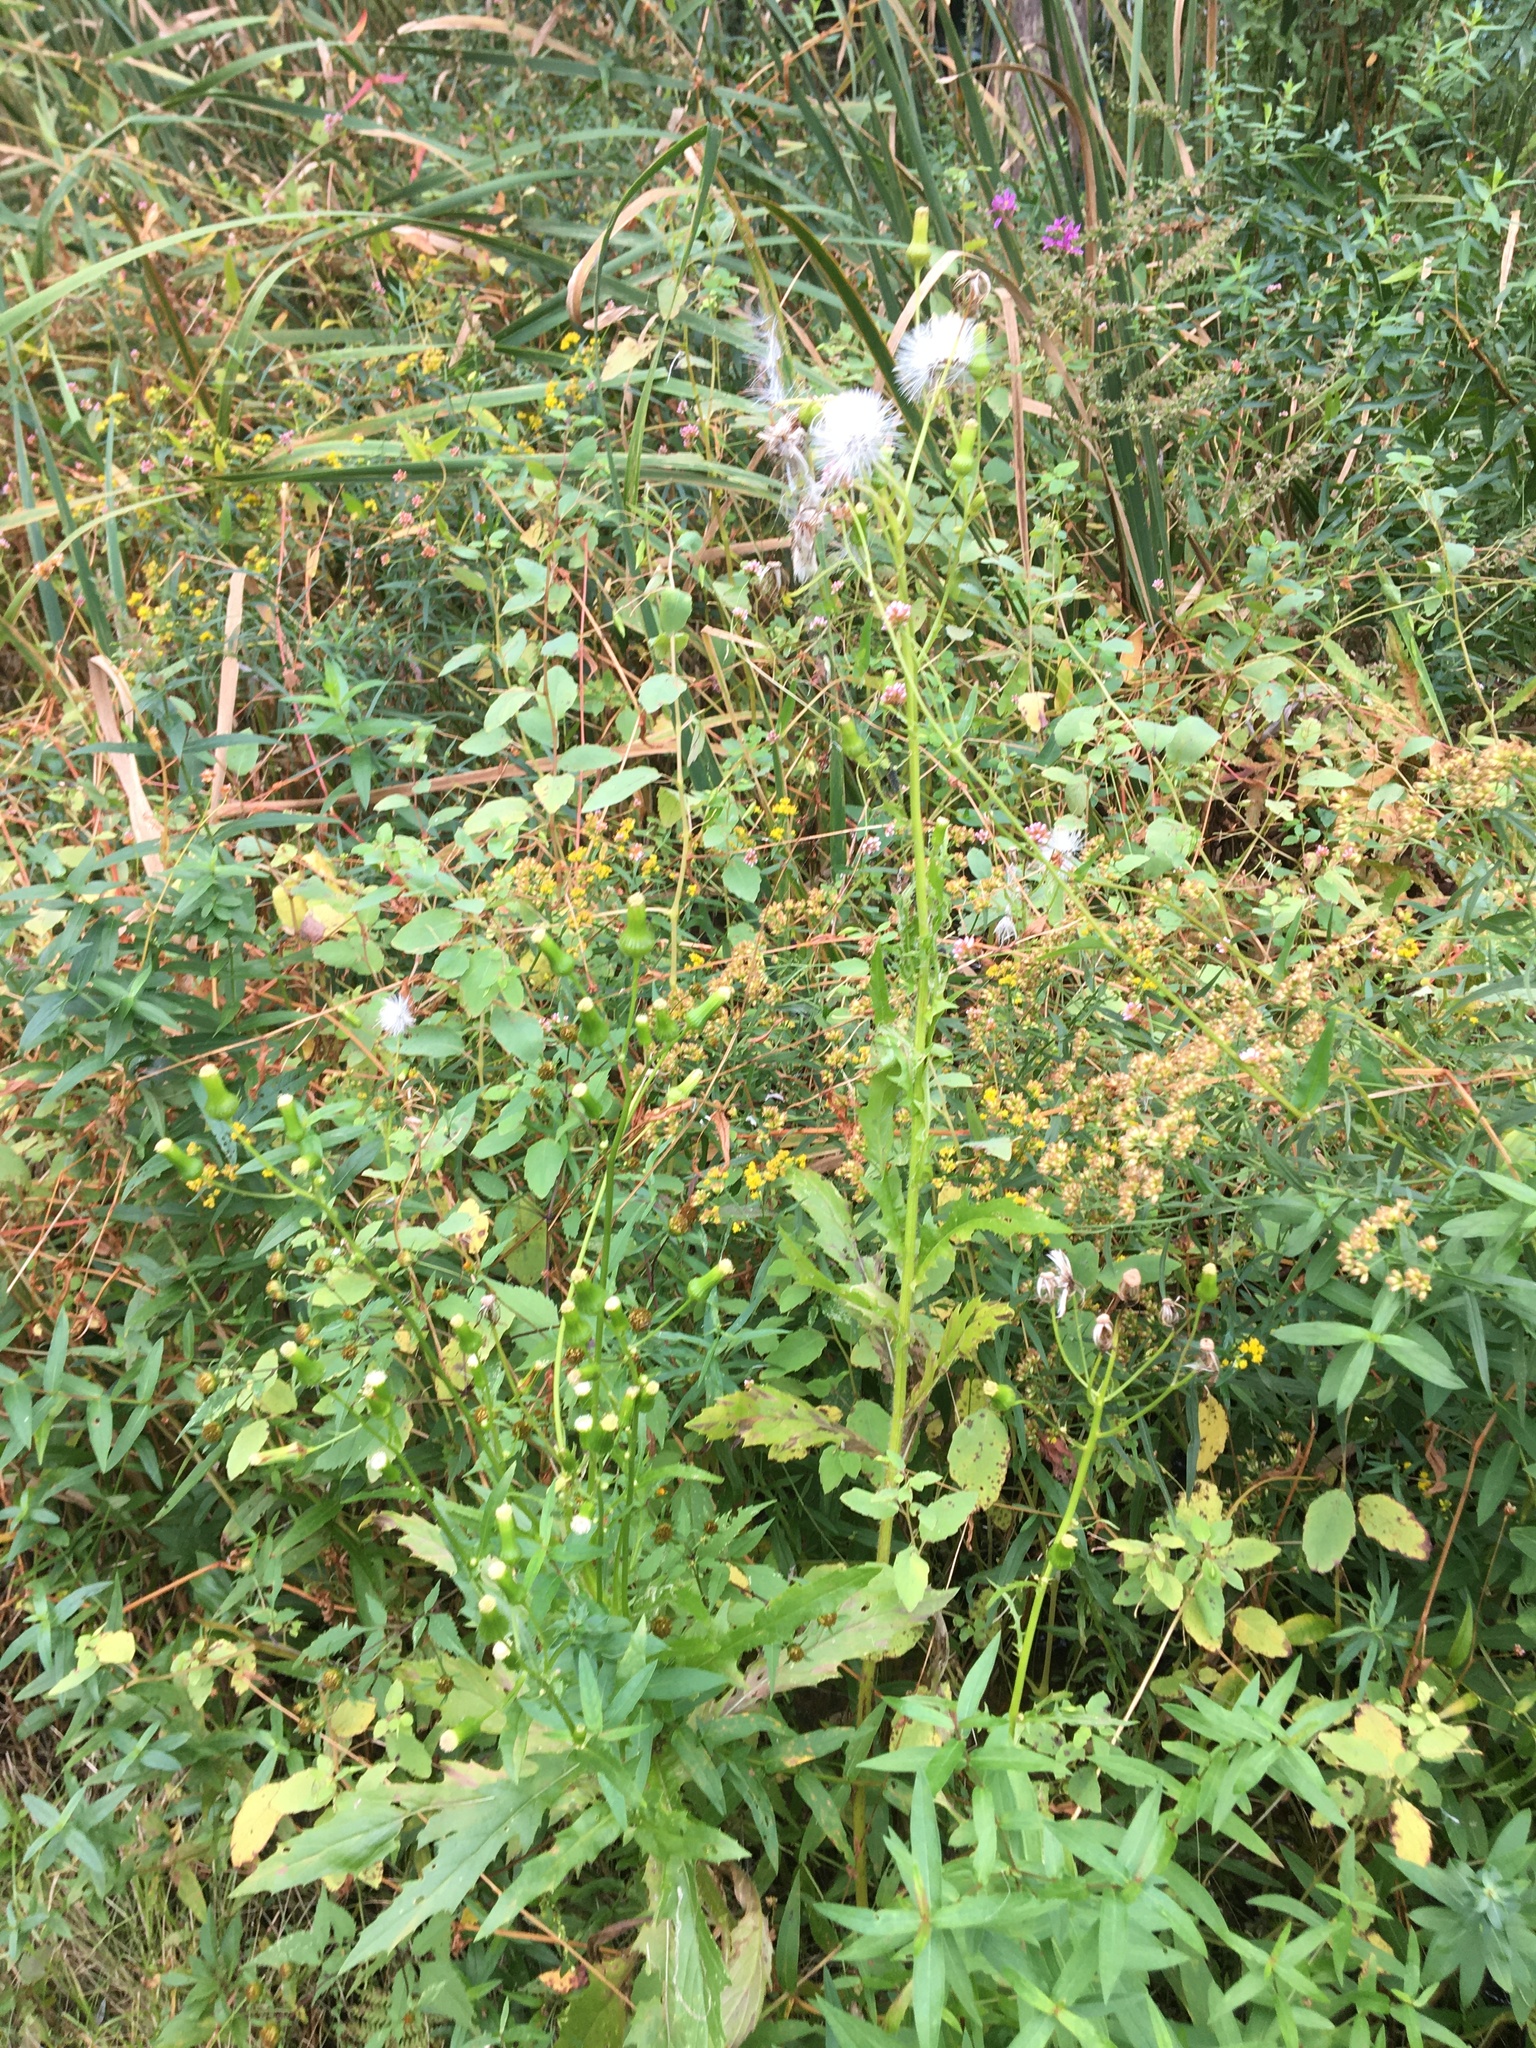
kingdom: Plantae
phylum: Tracheophyta
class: Magnoliopsida
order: Asterales
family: Asteraceae
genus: Erechtites
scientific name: Erechtites hieraciifolius
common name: American burnweed
